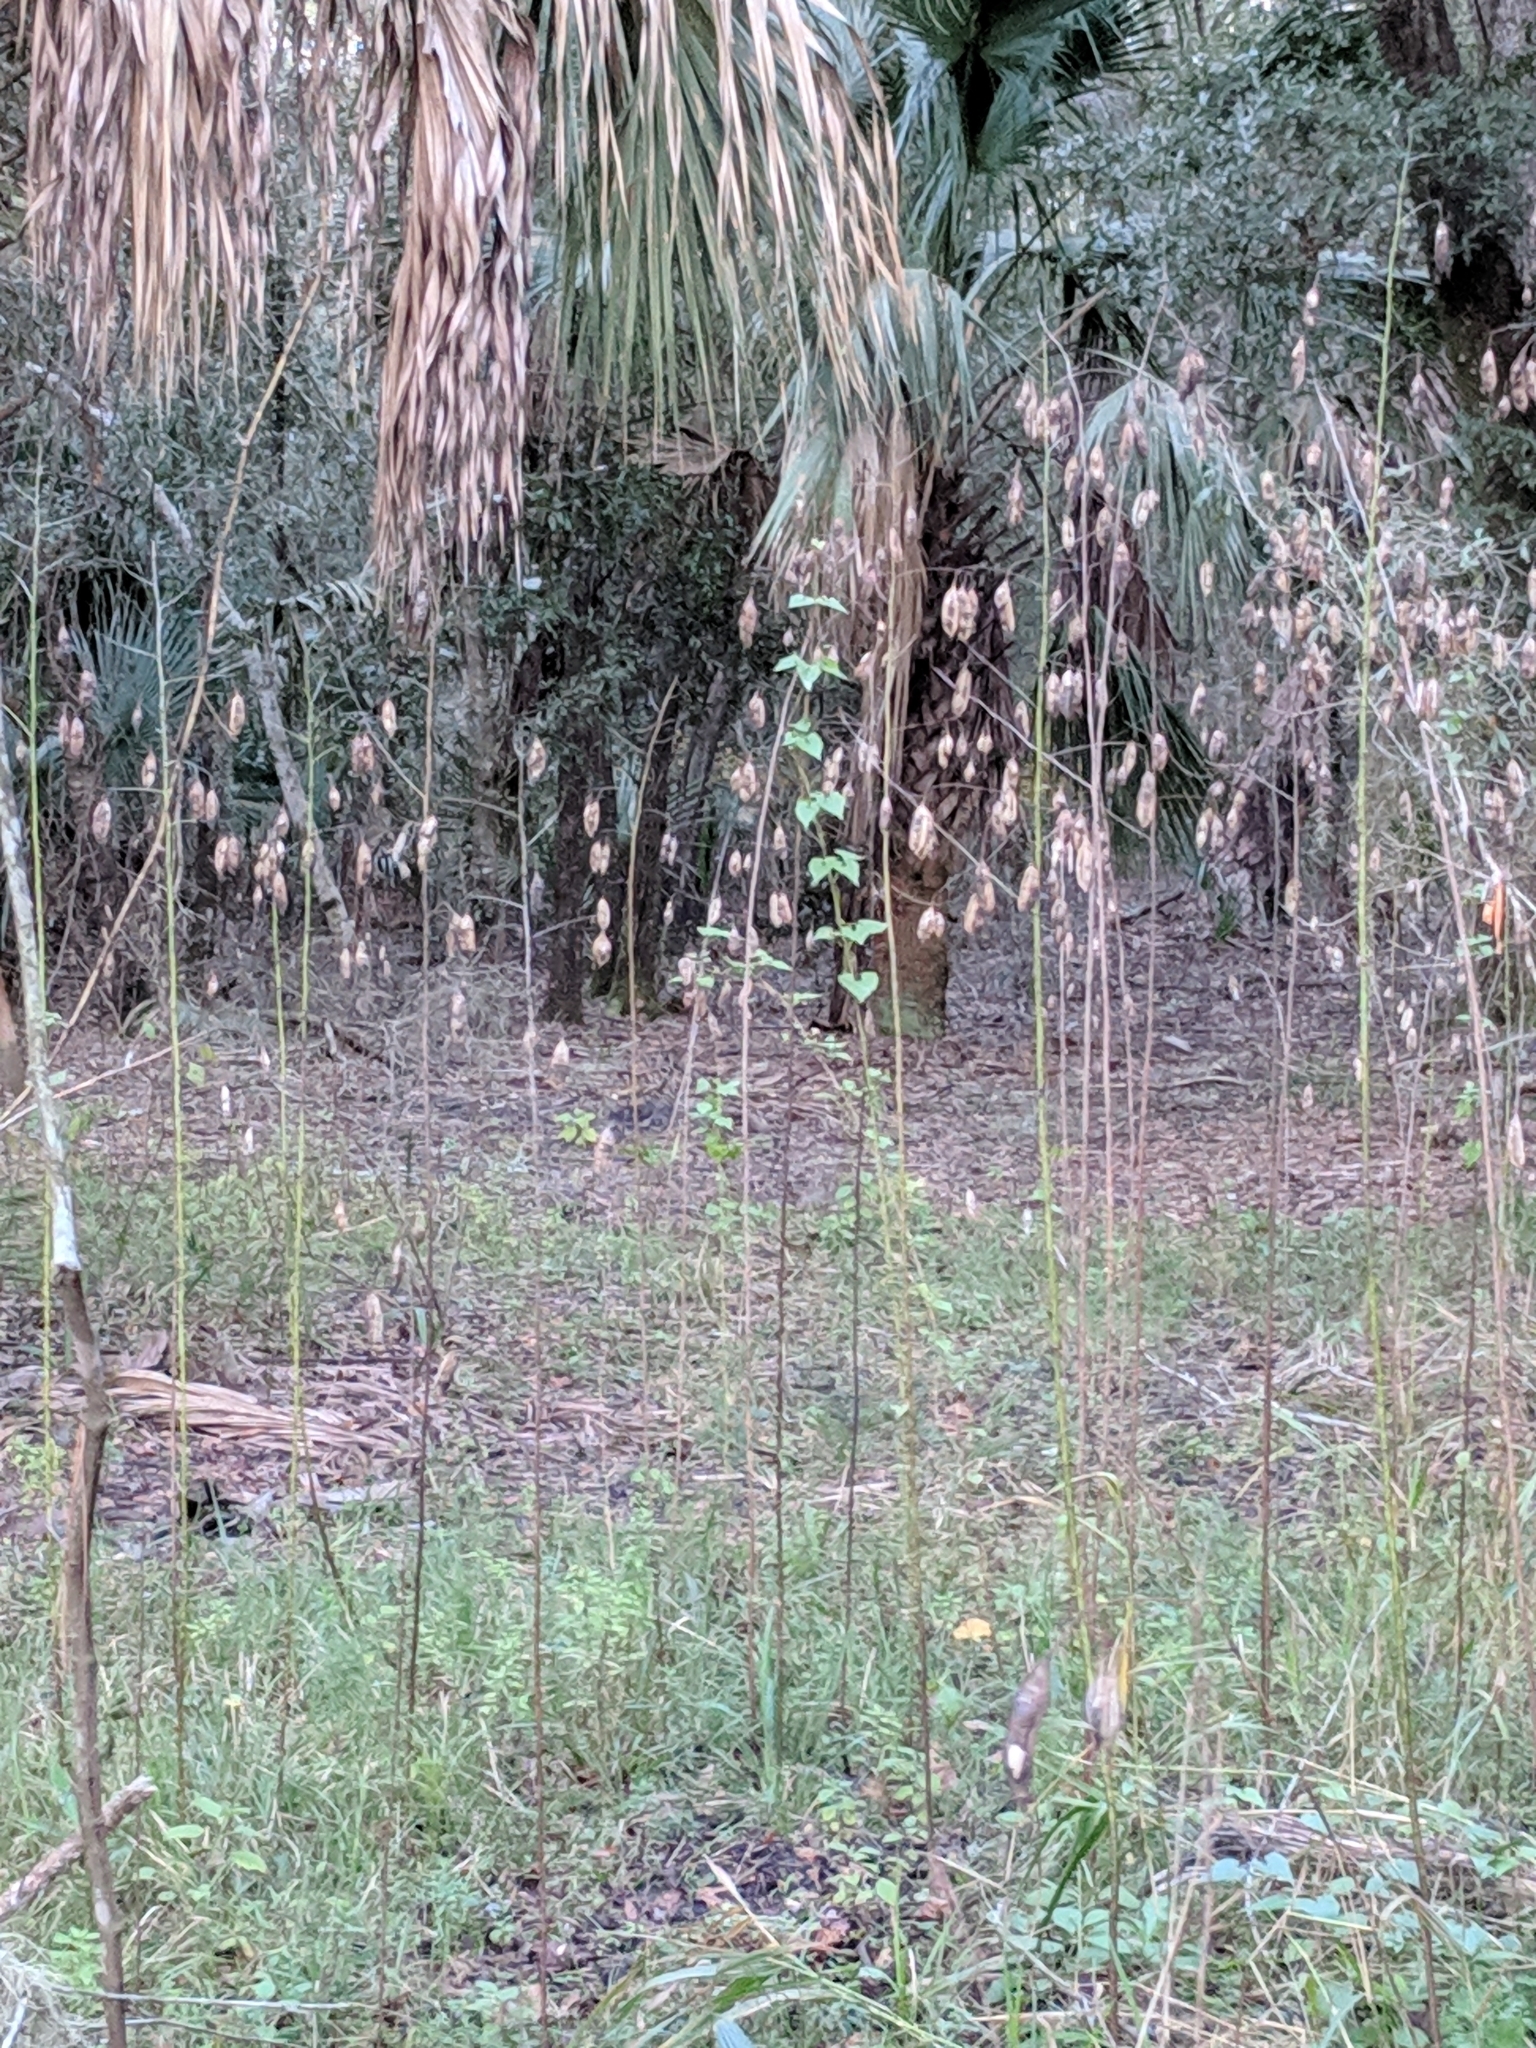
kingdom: Plantae
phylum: Tracheophyta
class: Magnoliopsida
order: Fabales
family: Fabaceae
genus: Sesbania
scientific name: Sesbania vesicaria
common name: Bagpod
